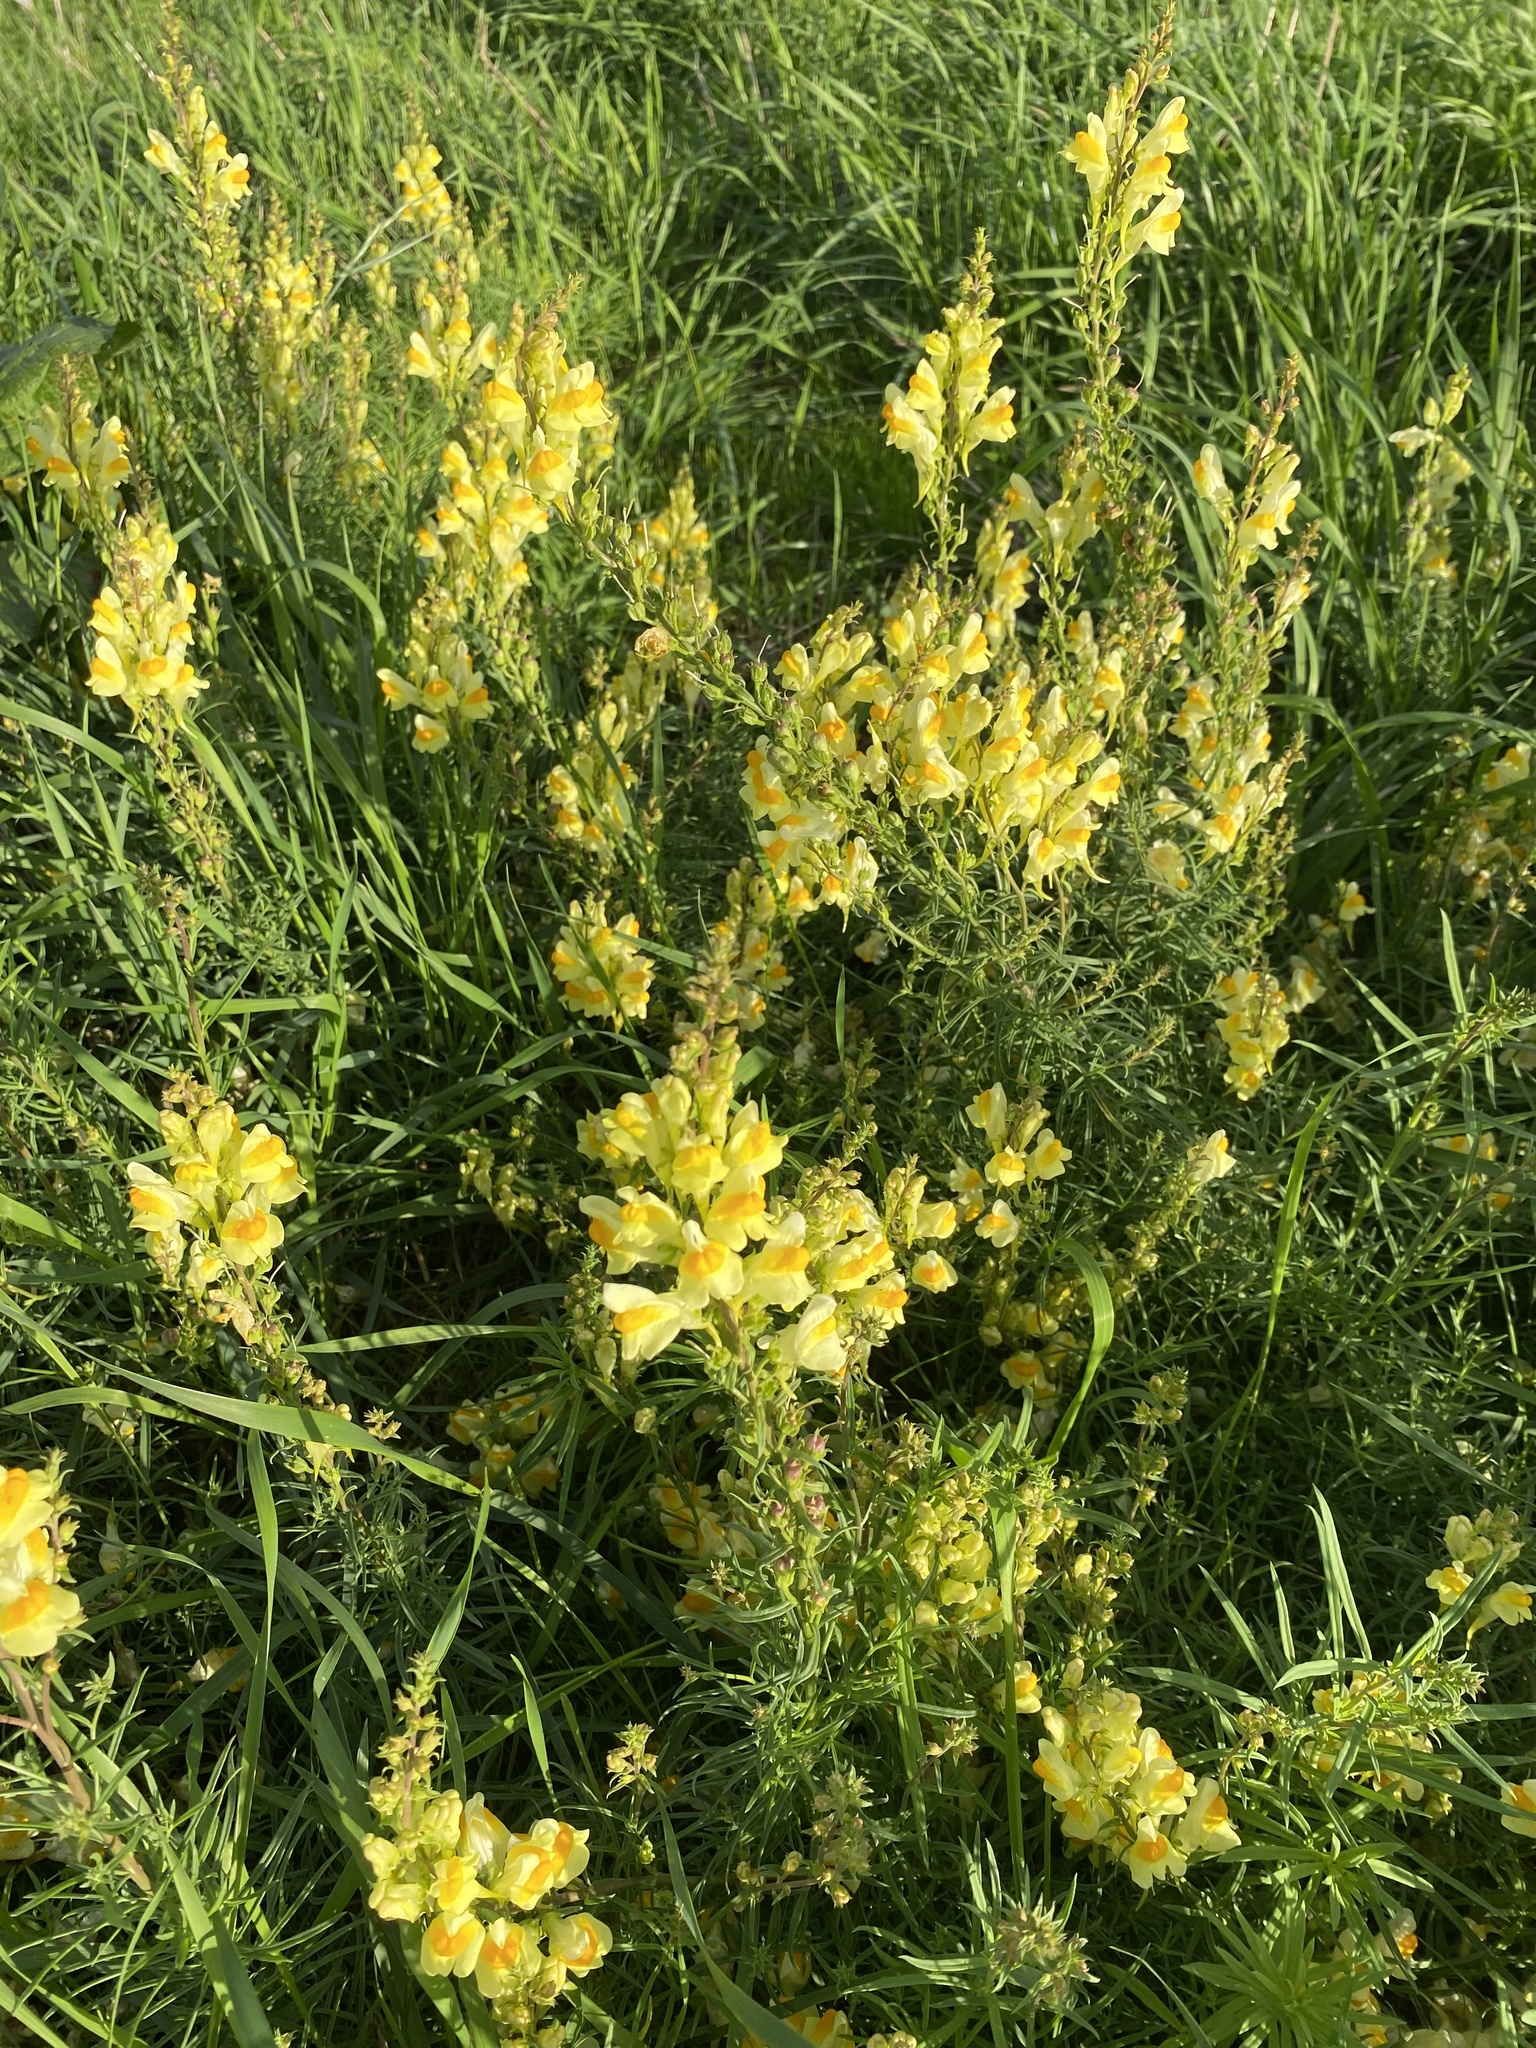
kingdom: Plantae
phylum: Tracheophyta
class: Magnoliopsida
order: Lamiales
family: Plantaginaceae
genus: Linaria
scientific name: Linaria vulgaris
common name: Butter and eggs
